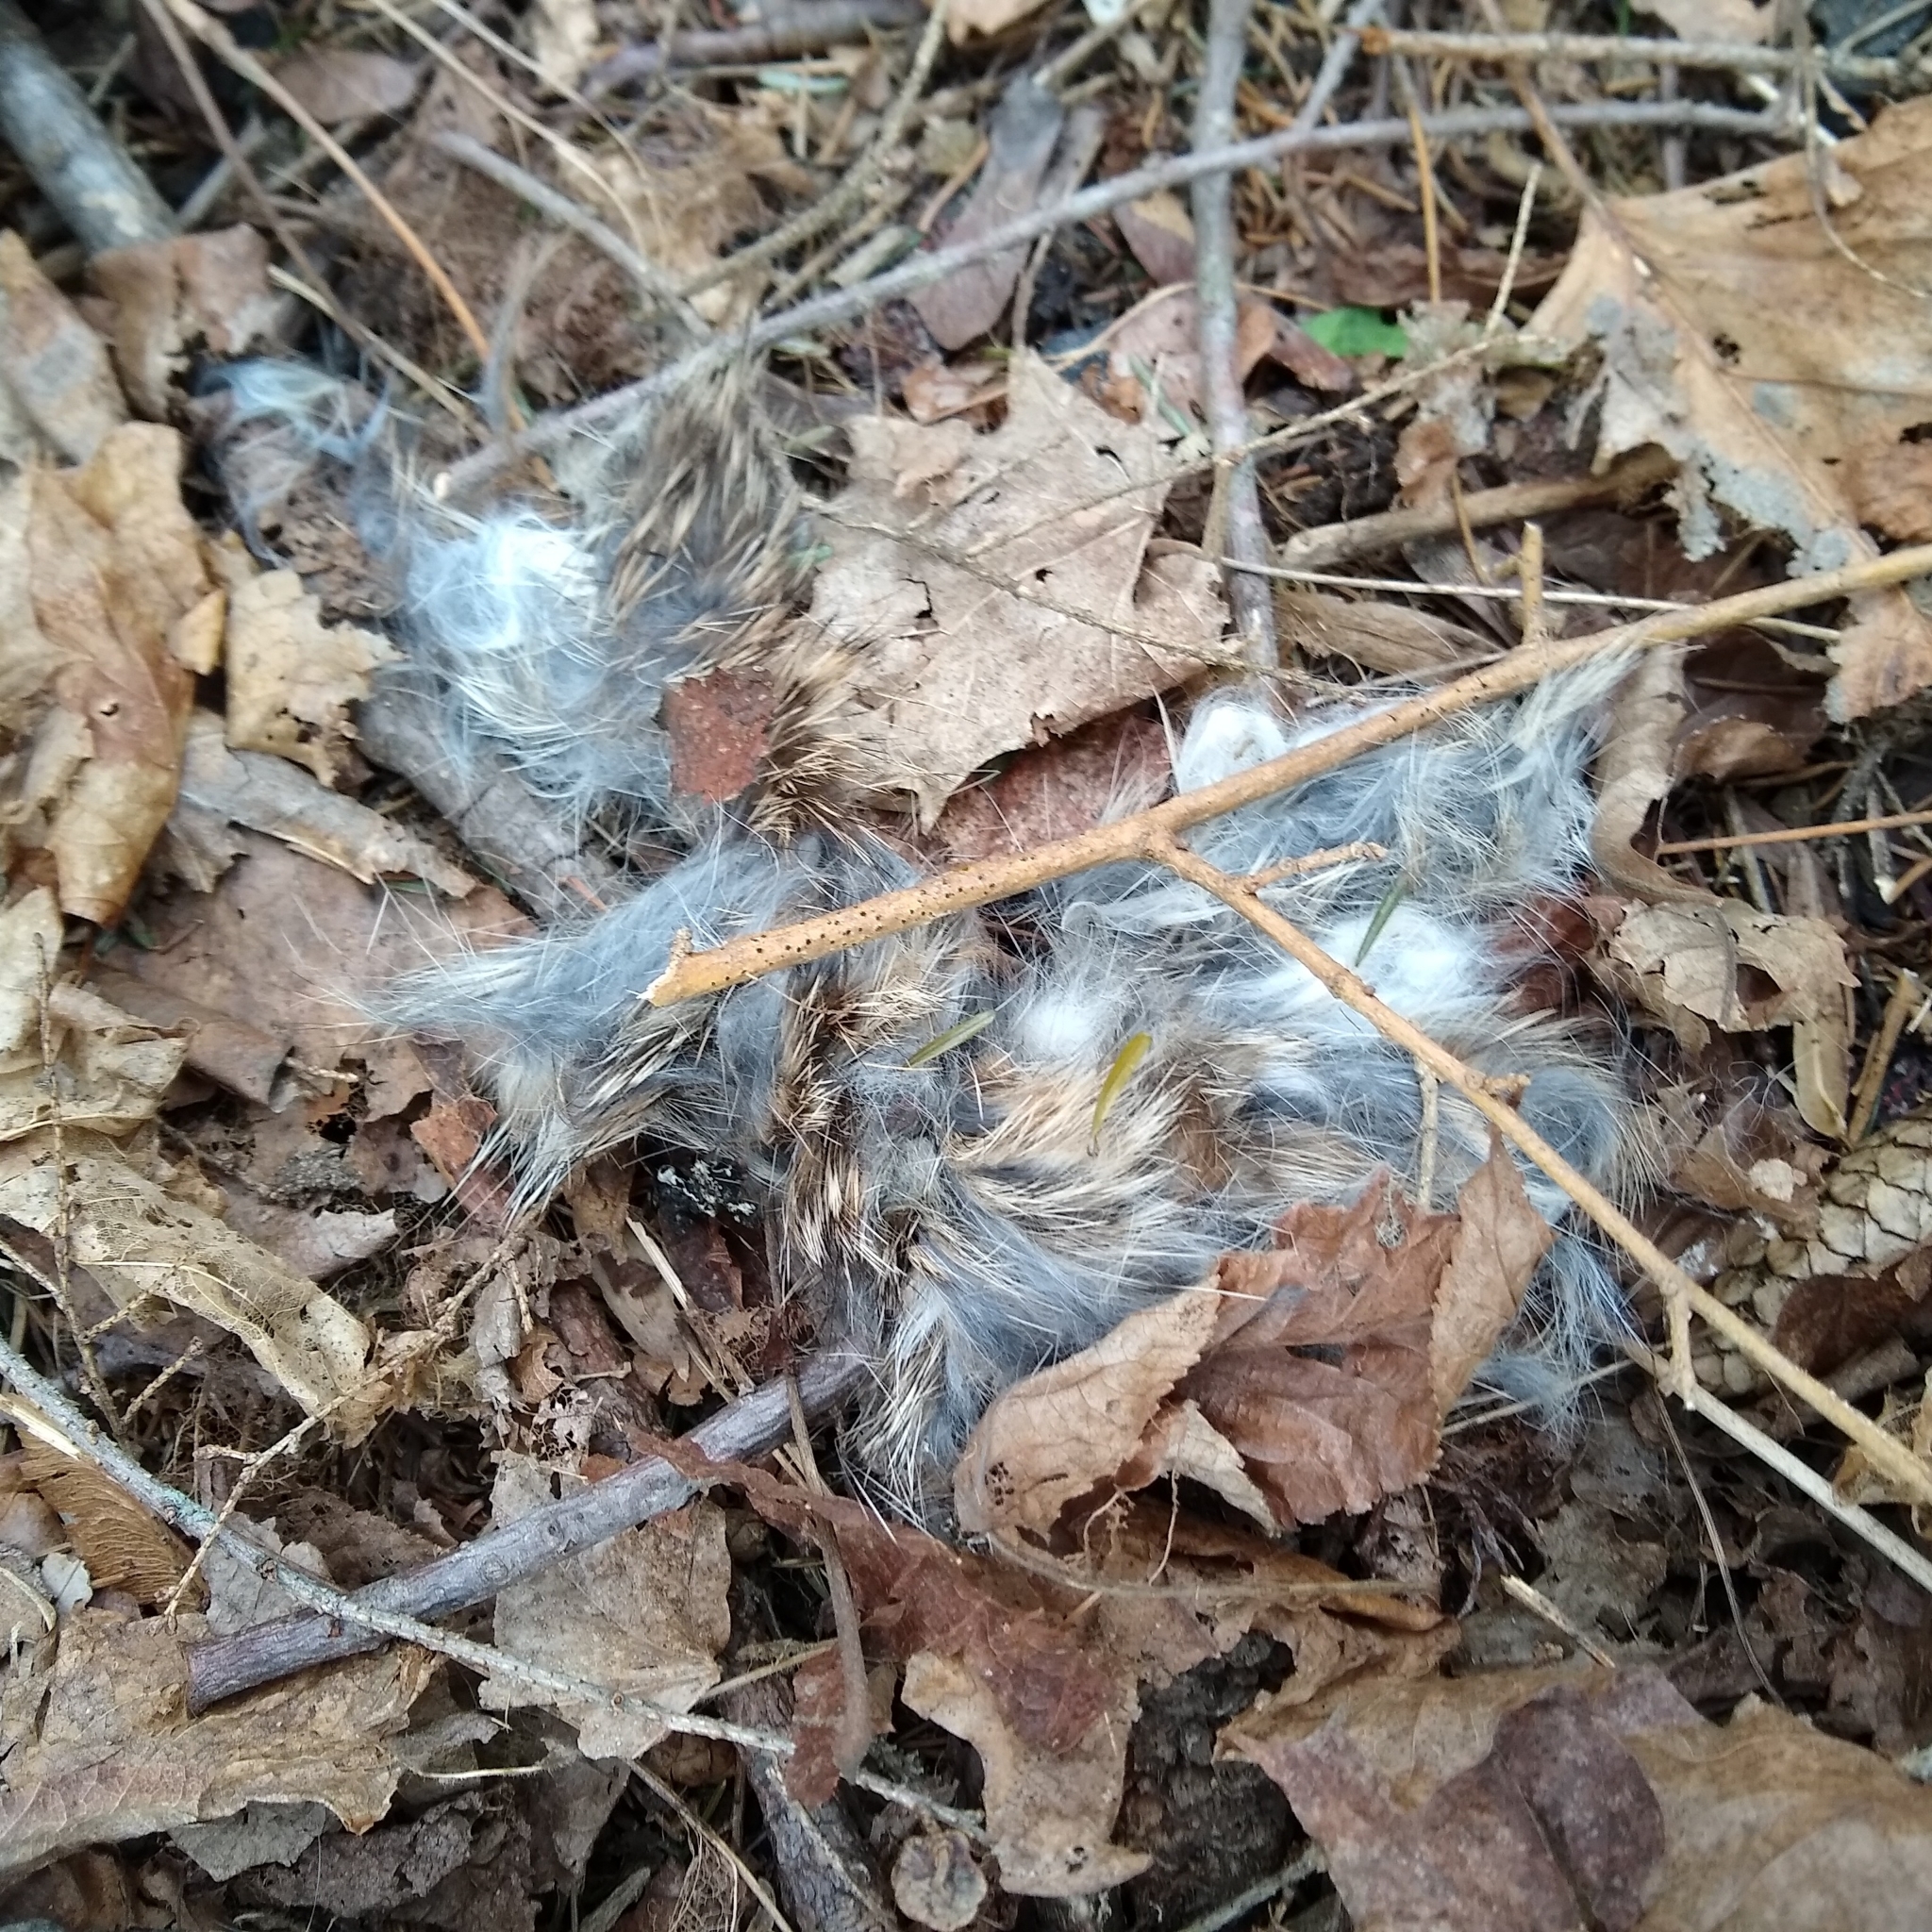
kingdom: Animalia
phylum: Chordata
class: Mammalia
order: Lagomorpha
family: Leporidae
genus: Sylvilagus
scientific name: Sylvilagus floridanus
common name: Eastern cottontail
